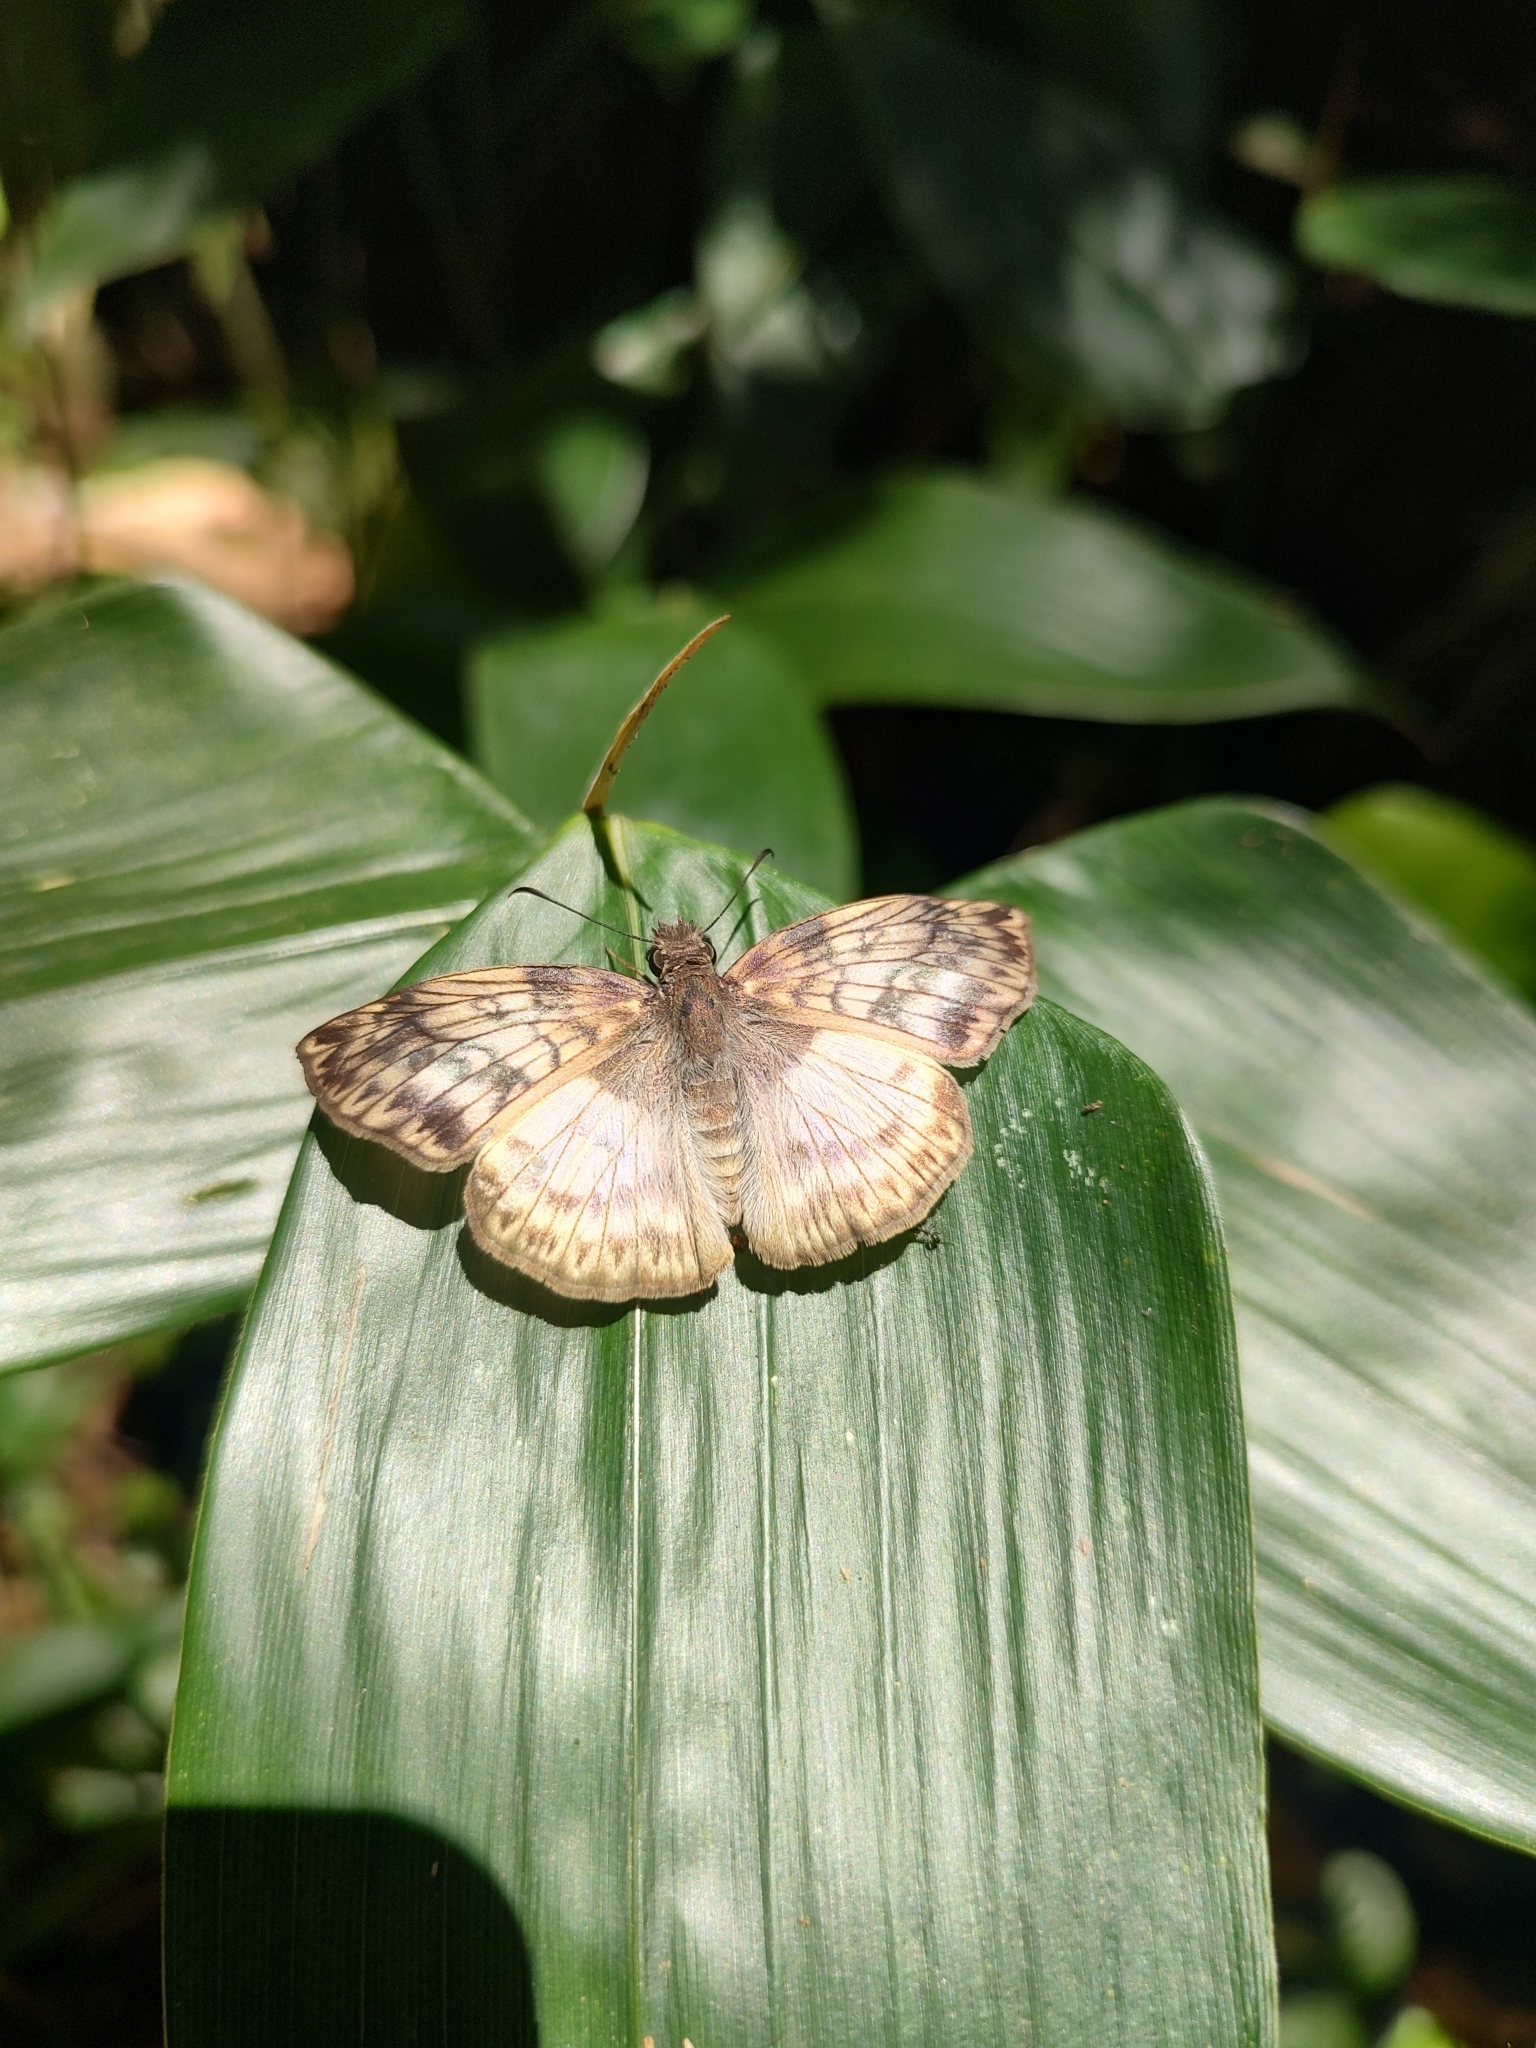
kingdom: Animalia
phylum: Arthropoda
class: Insecta
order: Lepidoptera
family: Hesperiidae
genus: Mylon
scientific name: Mylon maimon
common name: Common mylon
